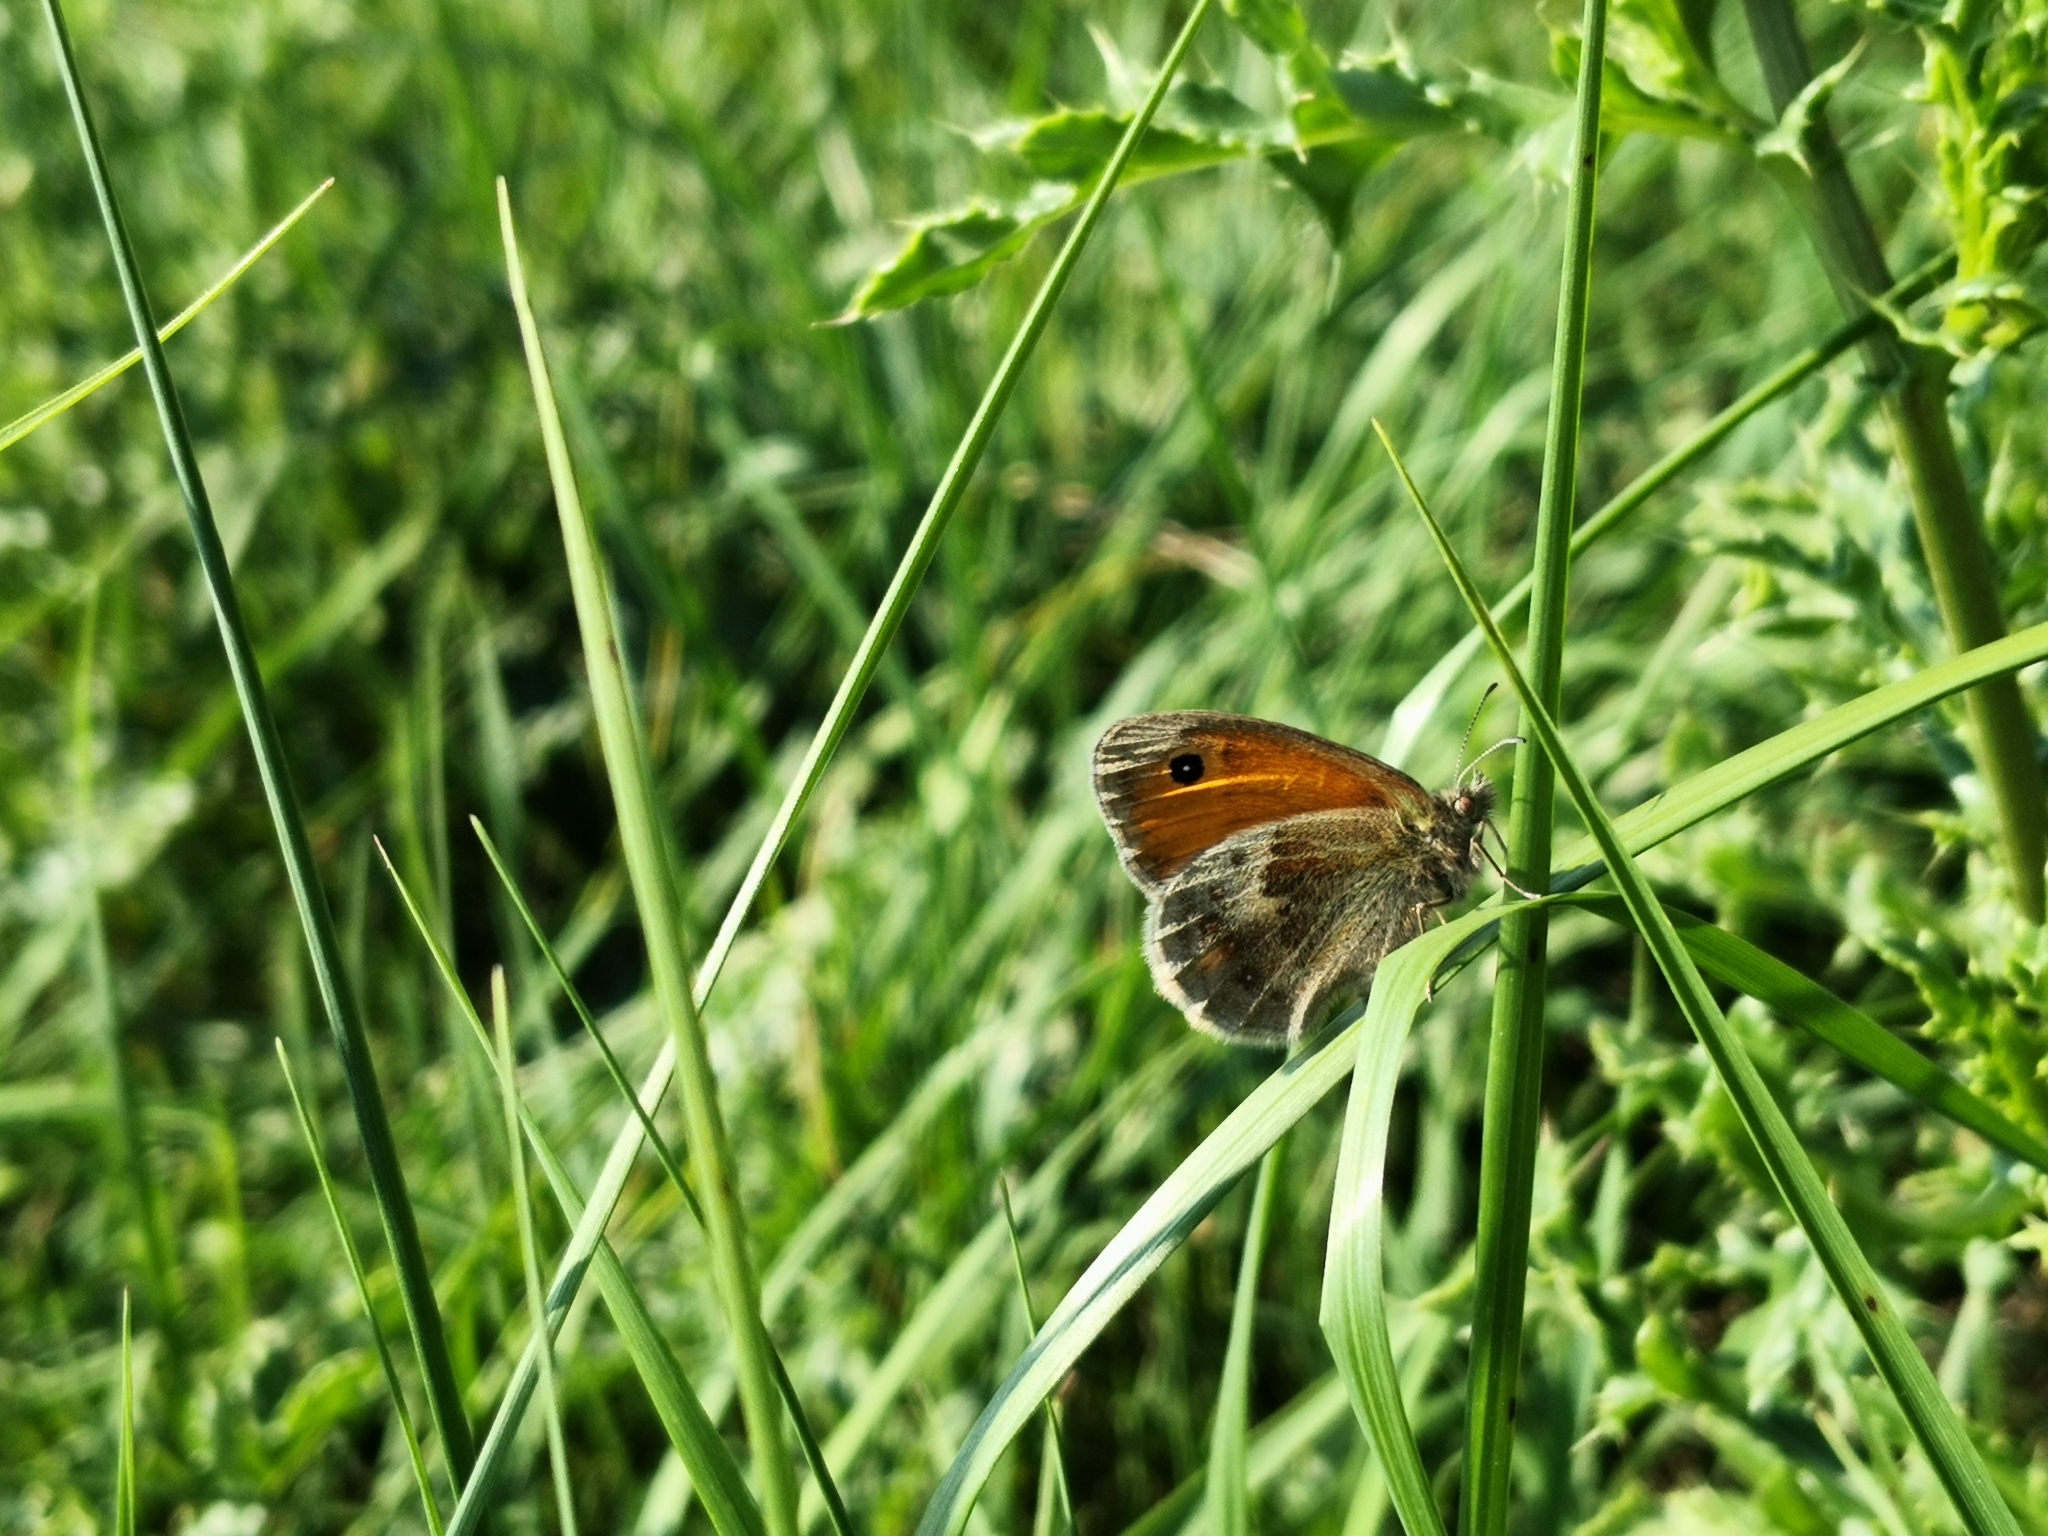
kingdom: Animalia
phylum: Arthropoda
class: Insecta
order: Lepidoptera
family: Nymphalidae
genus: Coenonympha
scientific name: Coenonympha pamphilus
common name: Small heath
